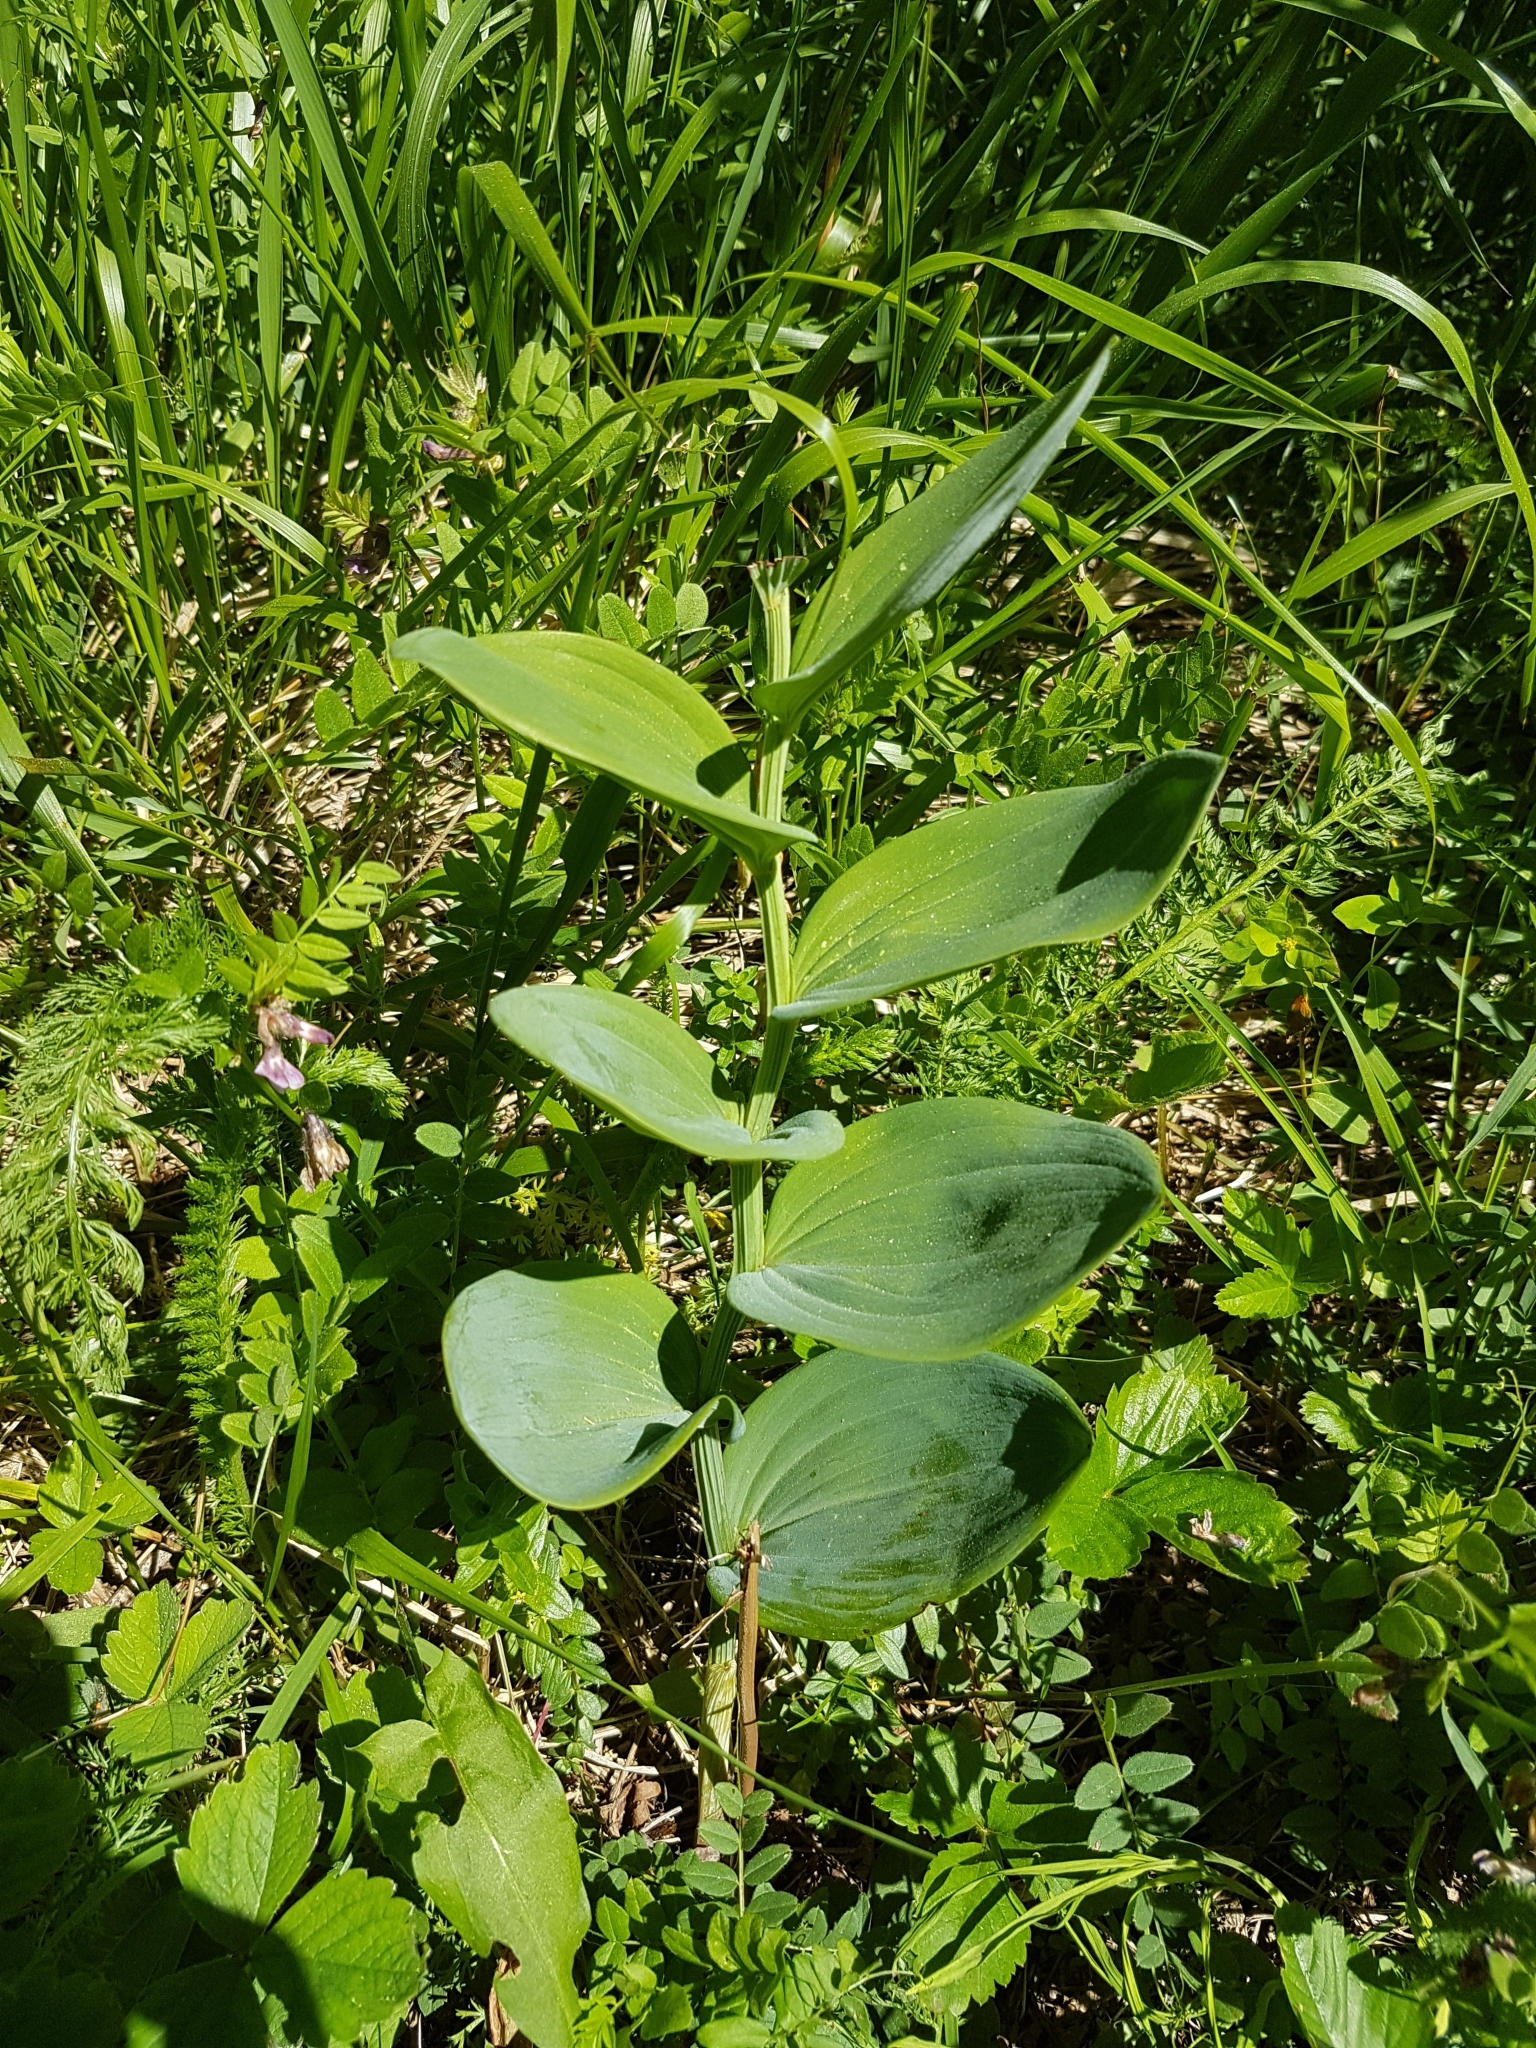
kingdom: Plantae
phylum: Tracheophyta
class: Liliopsida
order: Asparagales
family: Asparagaceae
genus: Polygonatum
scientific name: Polygonatum odoratum
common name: Angular solomon's-seal
